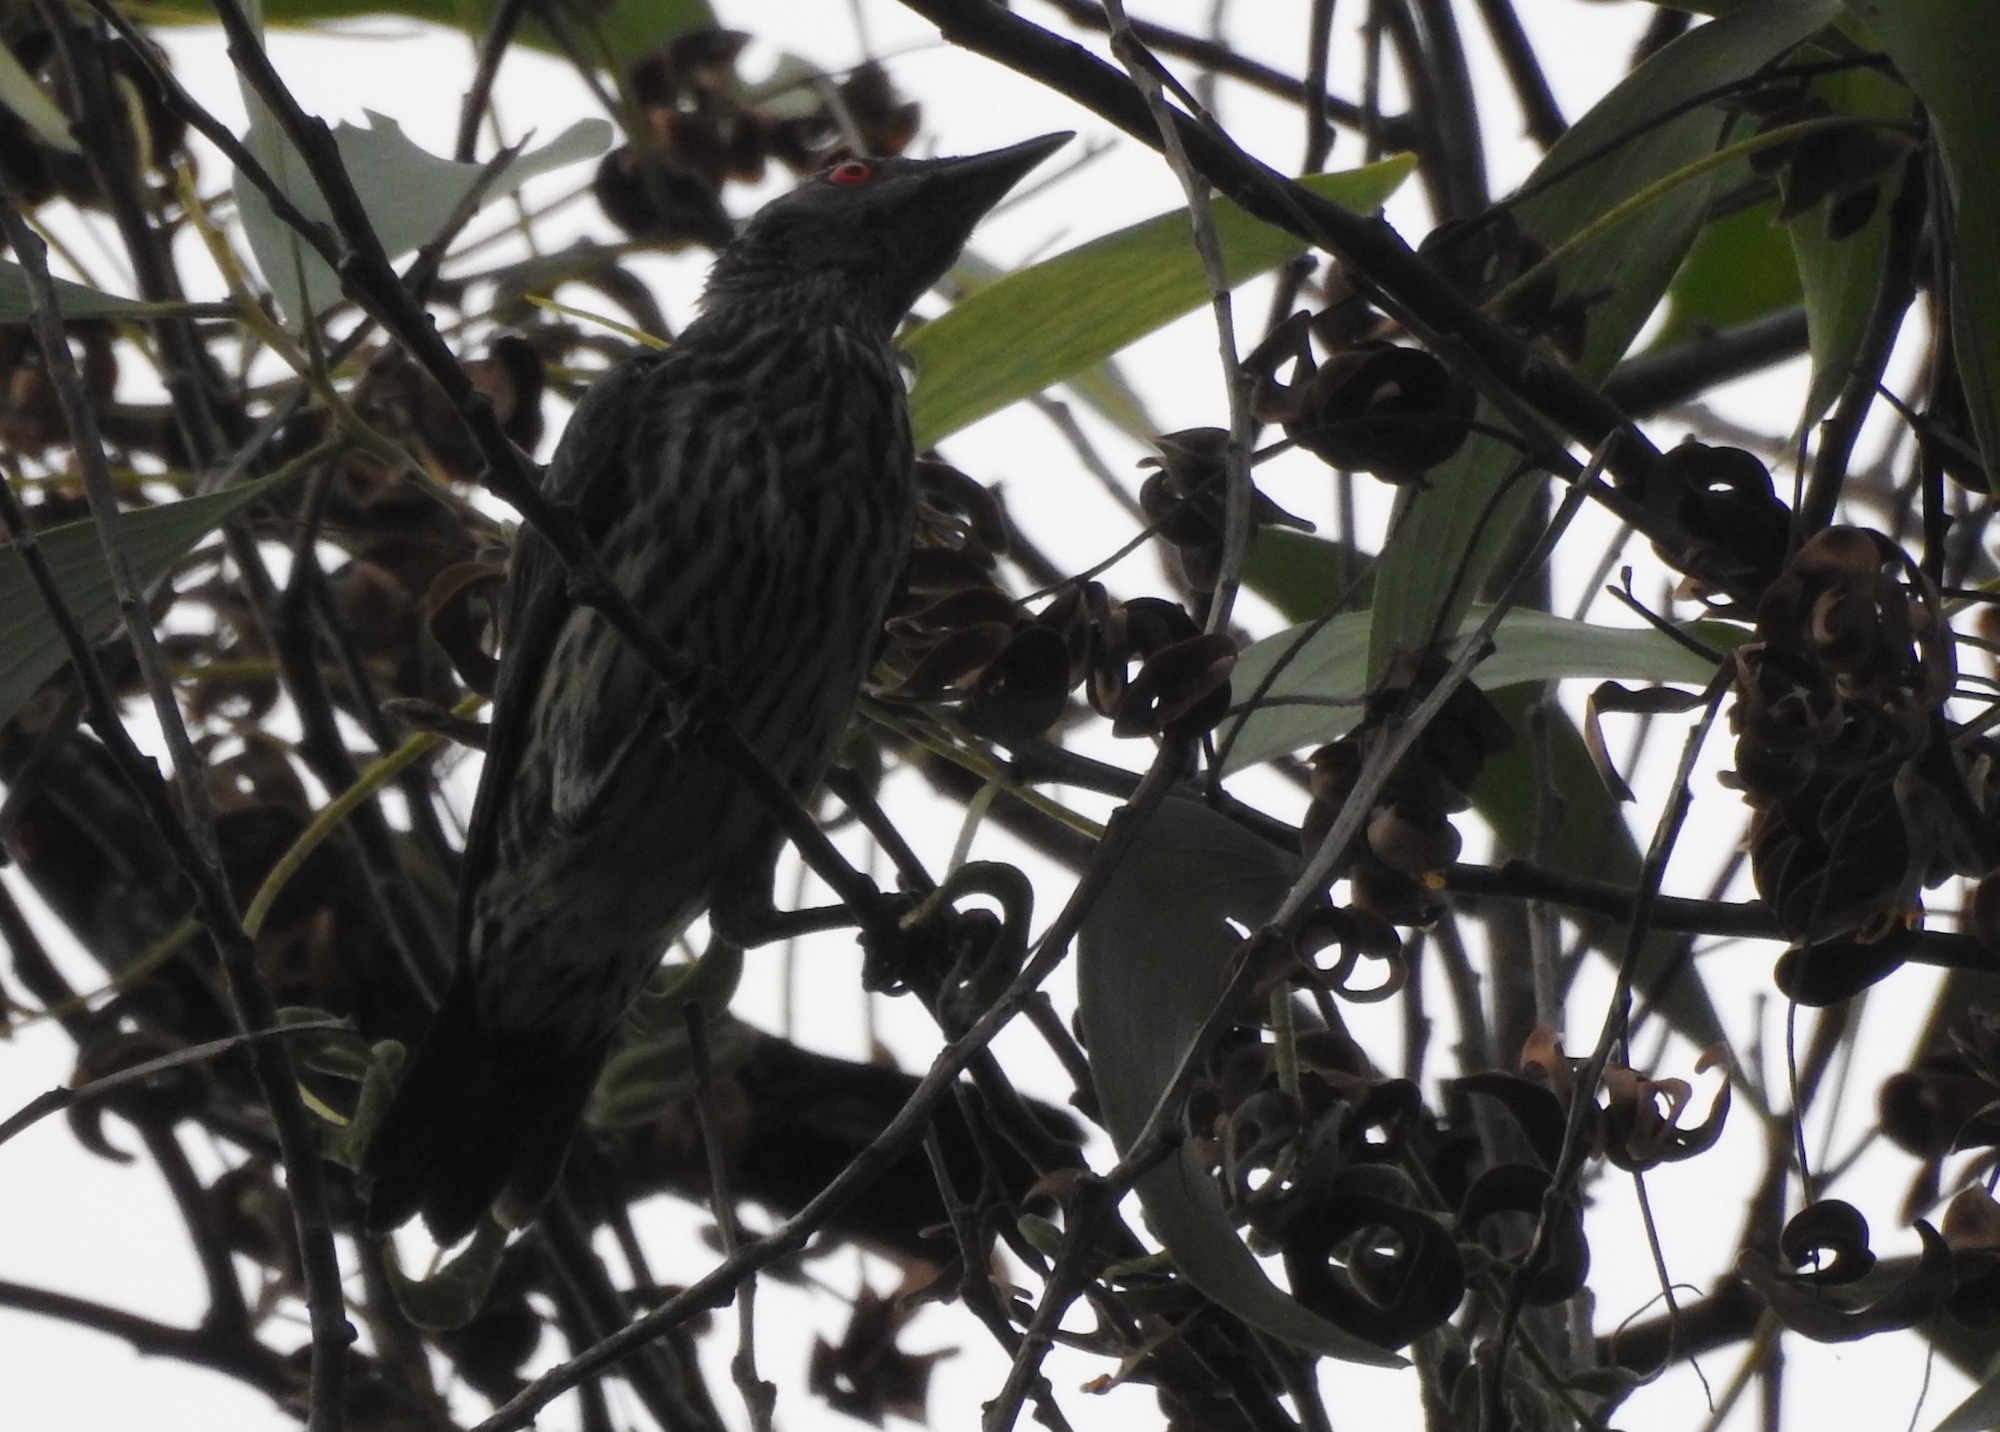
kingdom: Animalia
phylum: Chordata
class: Aves
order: Passeriformes
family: Sturnidae
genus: Aplonis
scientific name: Aplonis panayensis
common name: Asian glossy starling
